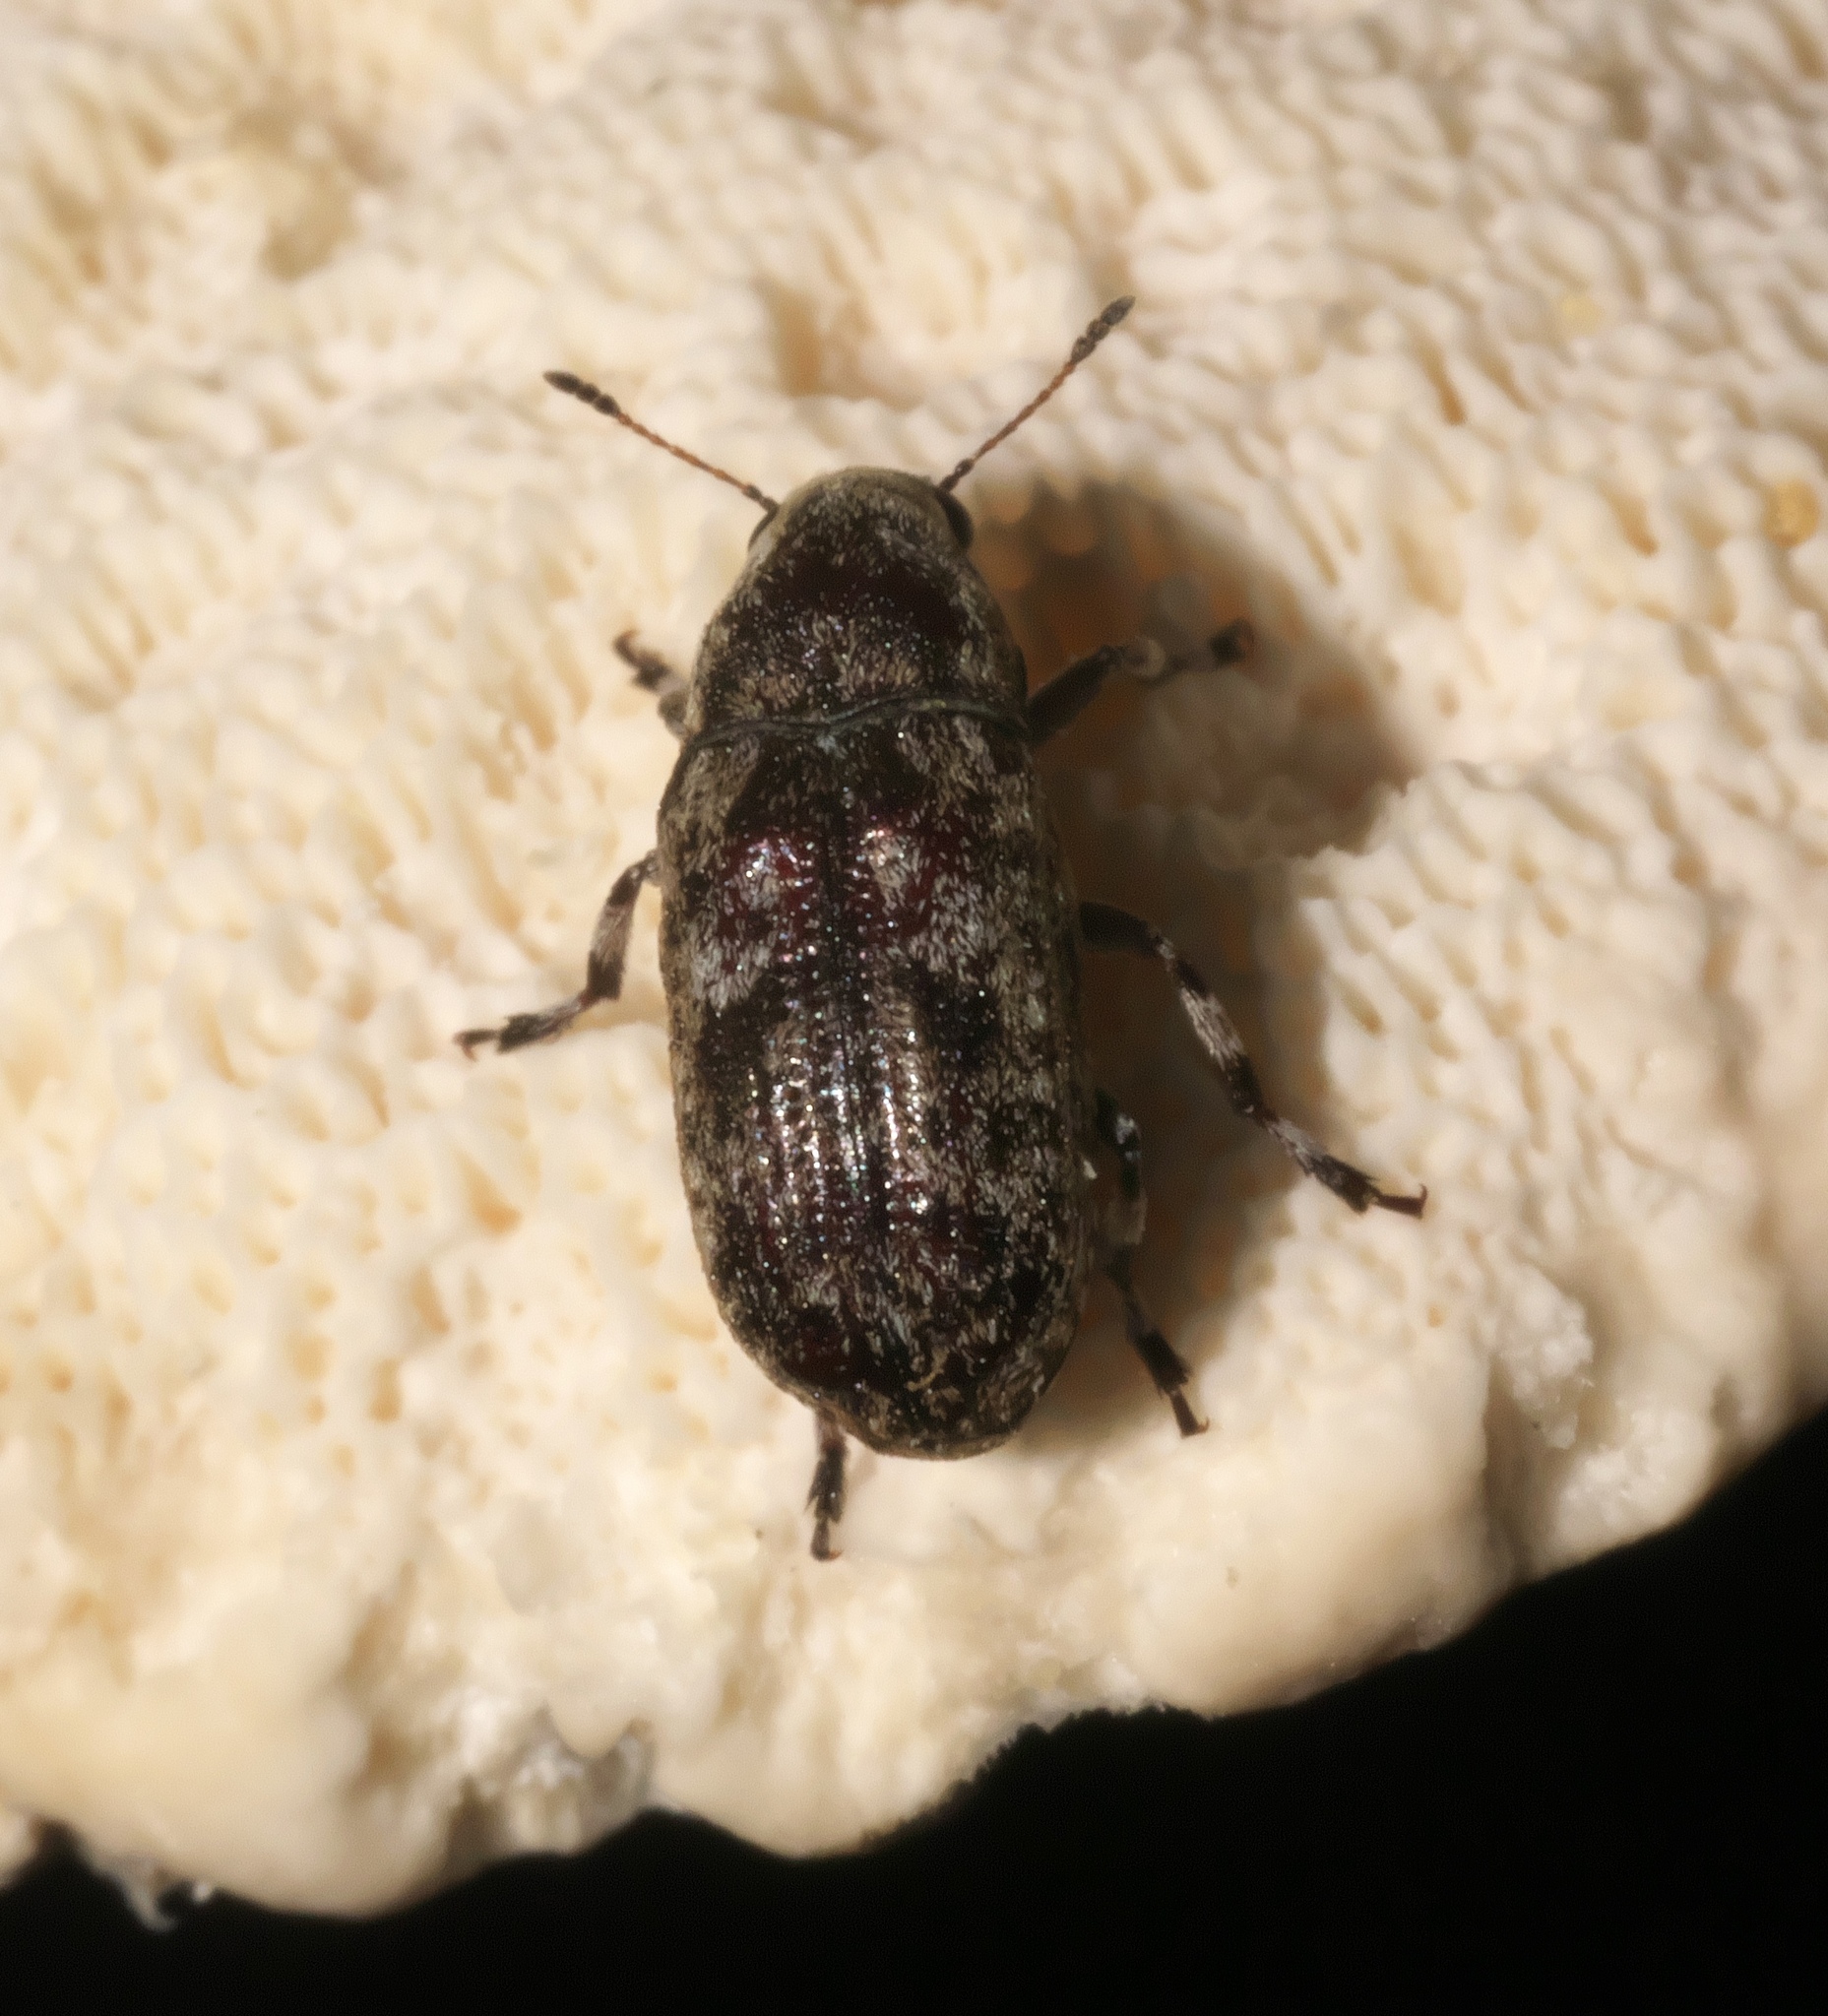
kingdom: Animalia
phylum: Arthropoda
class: Insecta
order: Coleoptera
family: Anthribidae
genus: Euparius
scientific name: Euparius marmoreus
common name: Marbled fungus weevil
